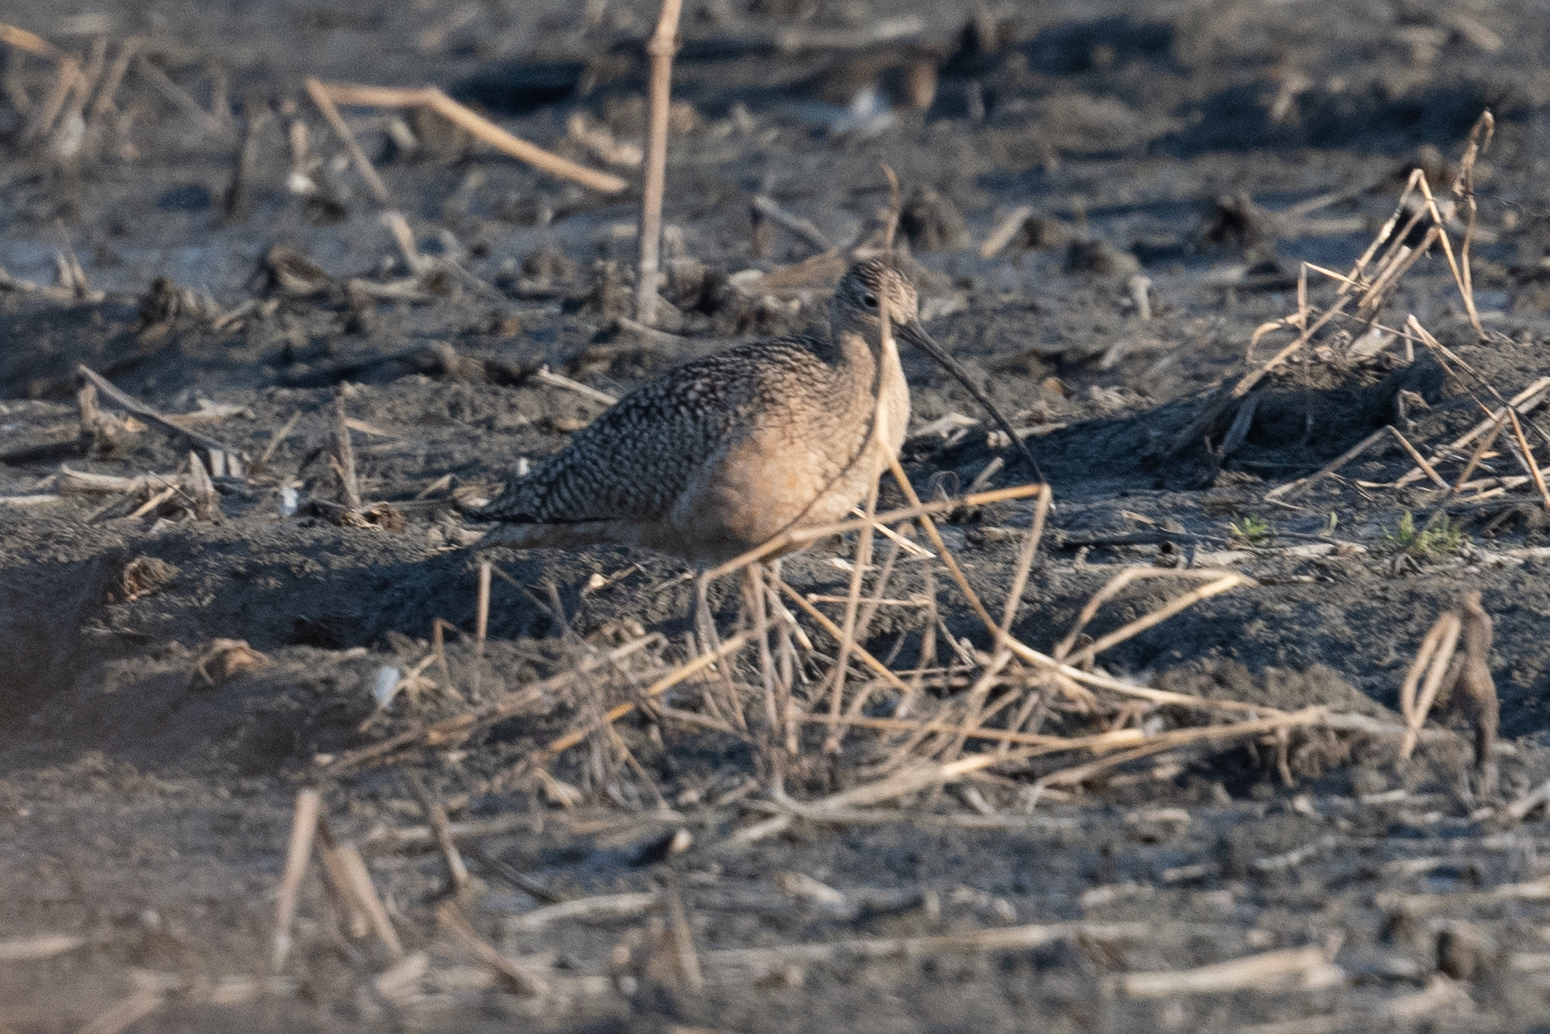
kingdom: Animalia
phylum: Chordata
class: Aves
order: Charadriiformes
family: Scolopacidae
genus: Numenius
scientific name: Numenius americanus
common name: Long-billed curlew
